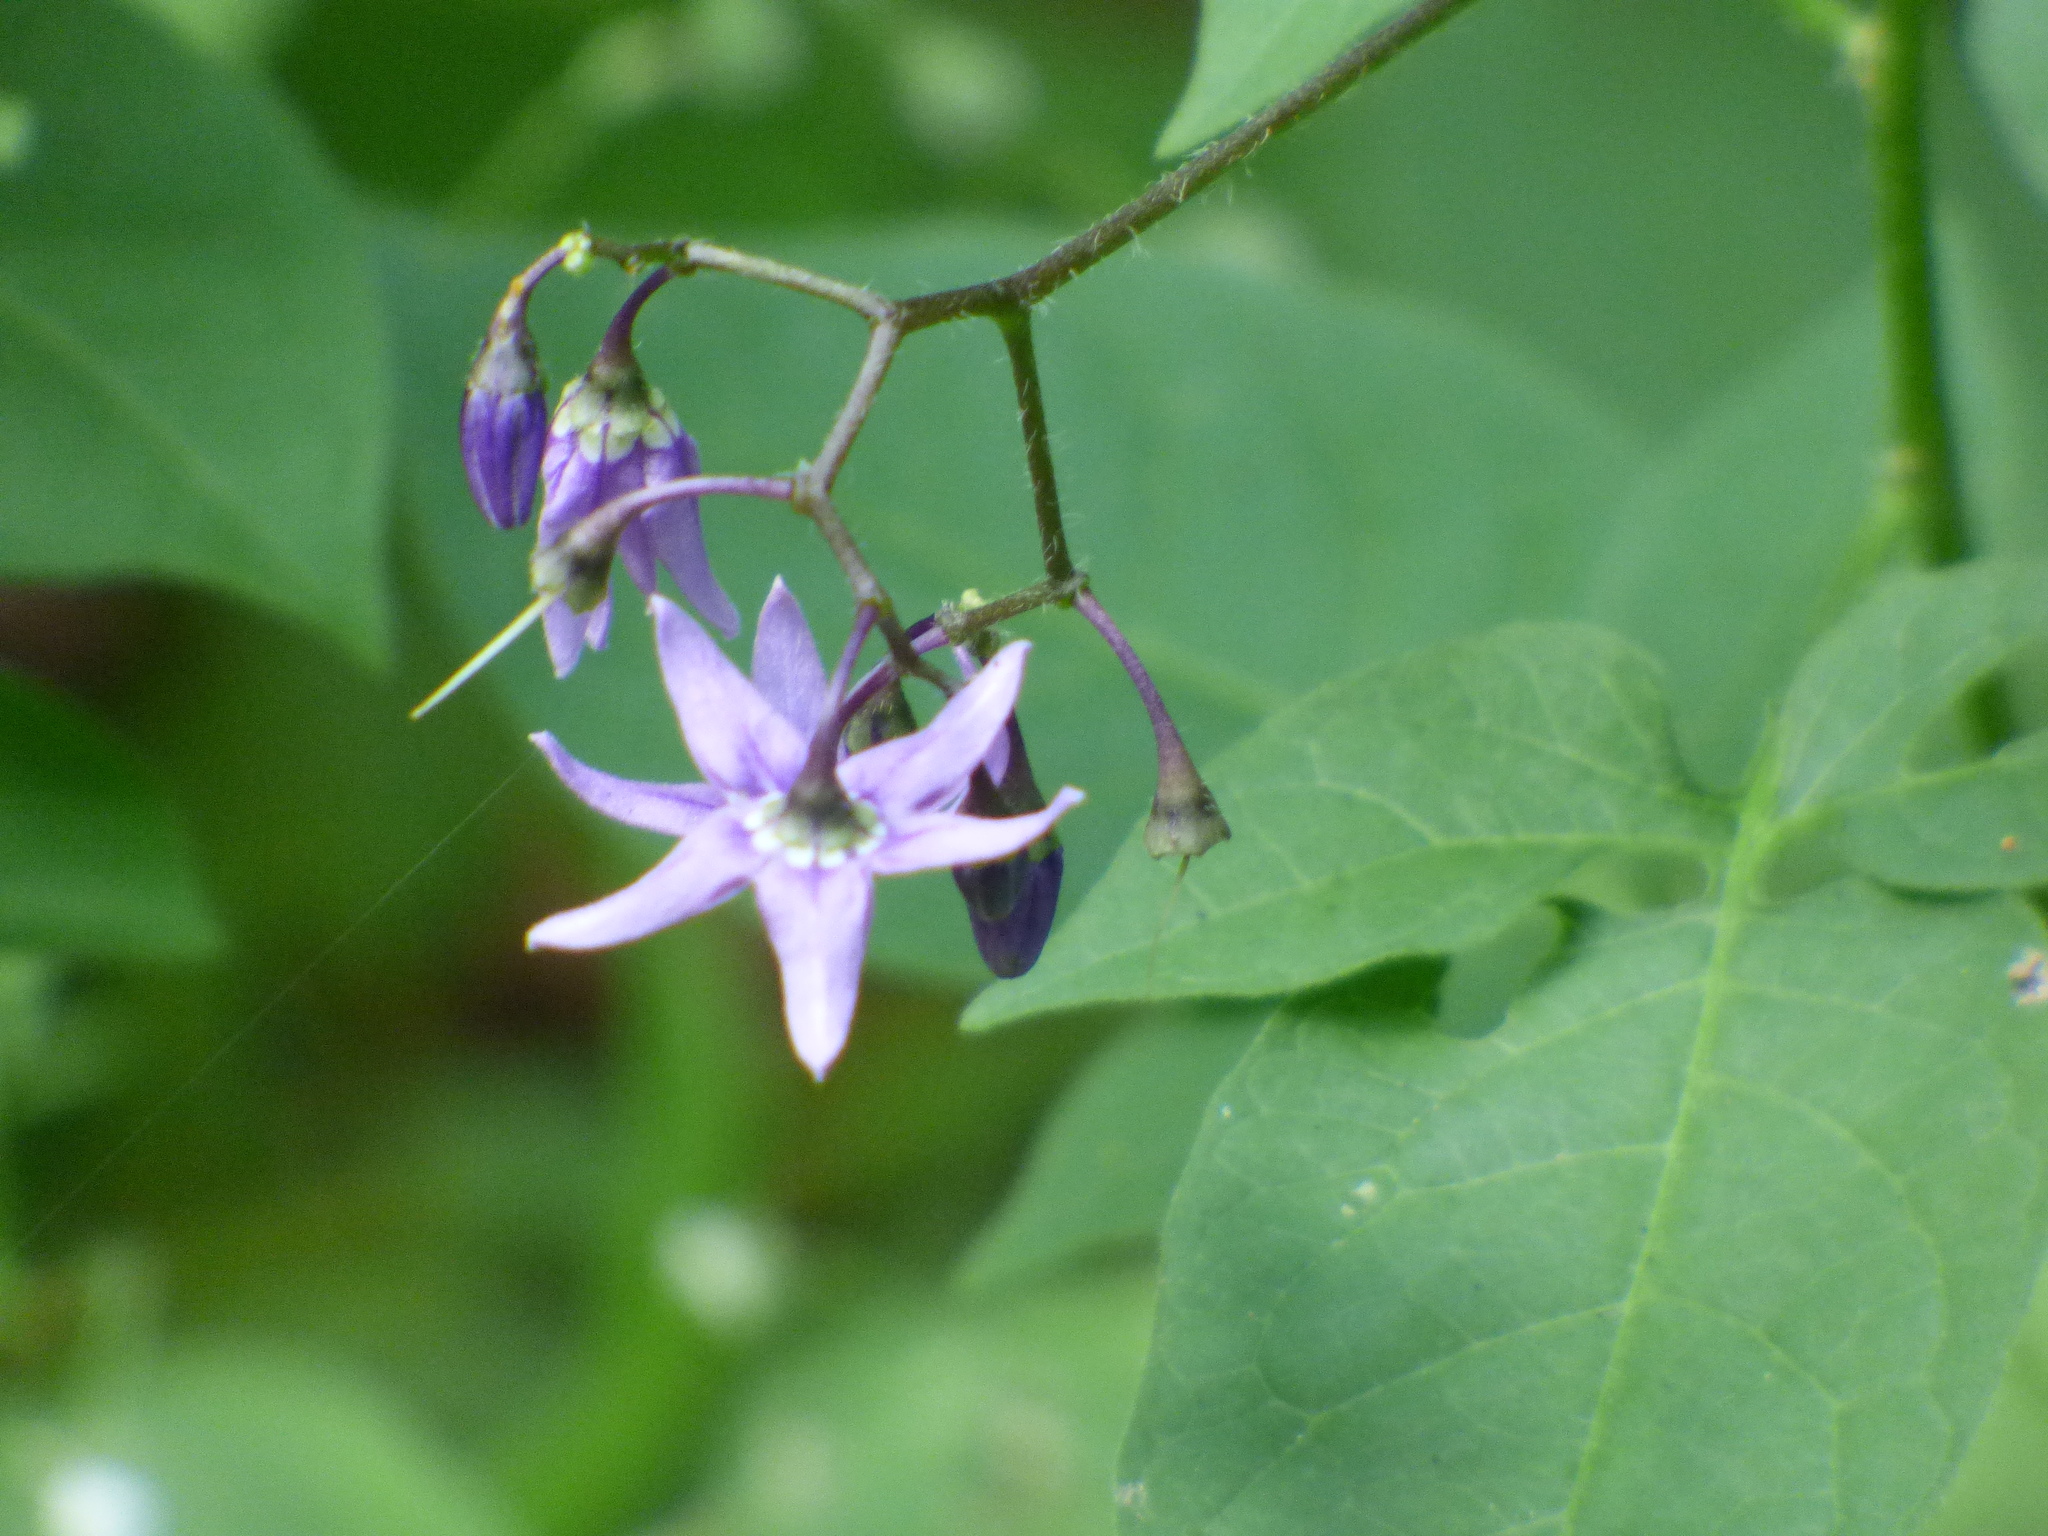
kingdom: Plantae
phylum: Tracheophyta
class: Magnoliopsida
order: Solanales
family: Solanaceae
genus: Solanum
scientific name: Solanum dulcamara
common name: Climbing nightshade
